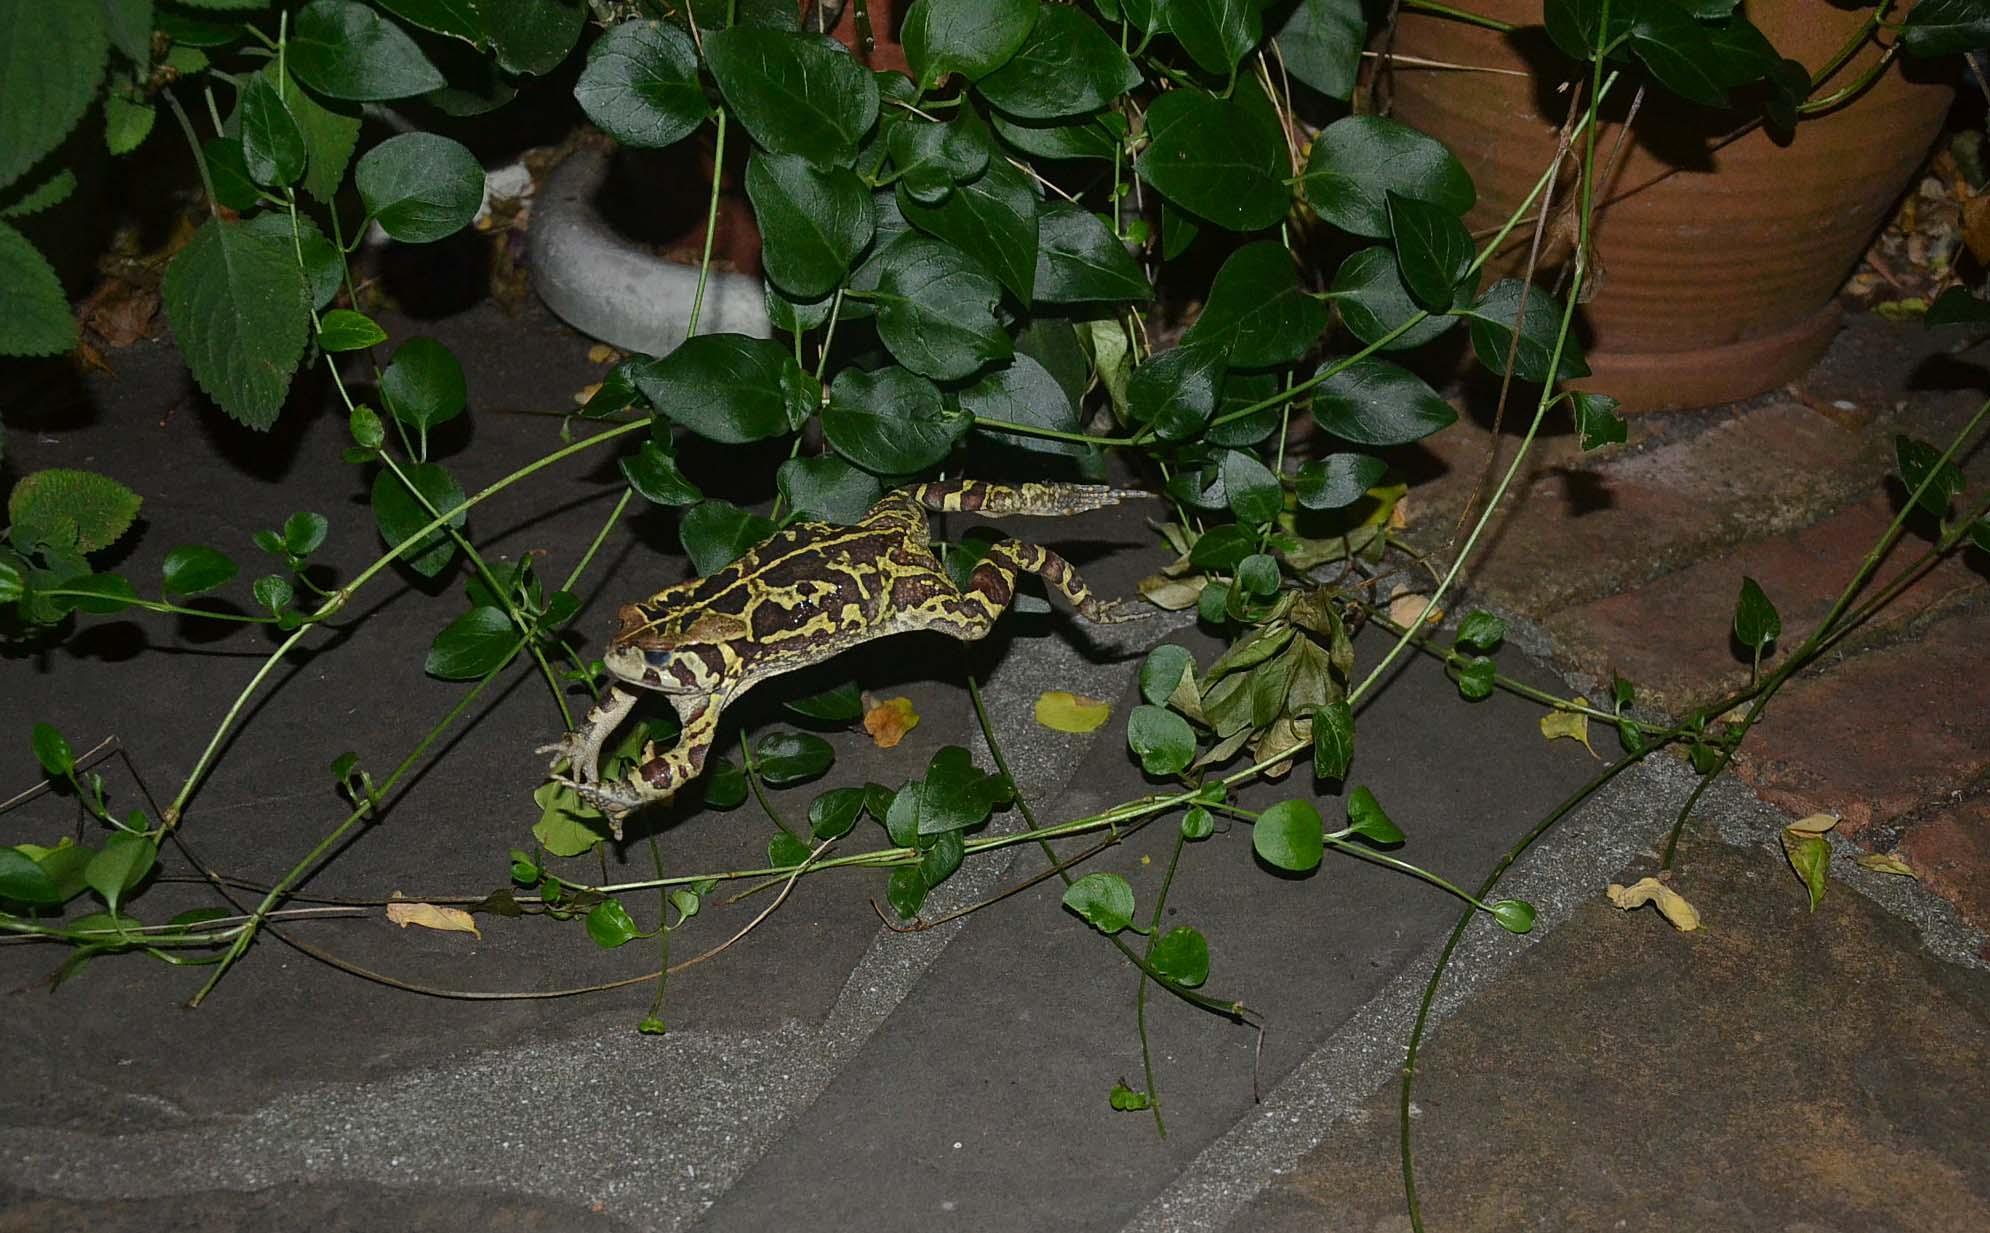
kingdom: Animalia
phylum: Chordata
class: Amphibia
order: Anura
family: Bufonidae
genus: Sclerophrys
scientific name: Sclerophrys pantherina
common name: Panther toad
